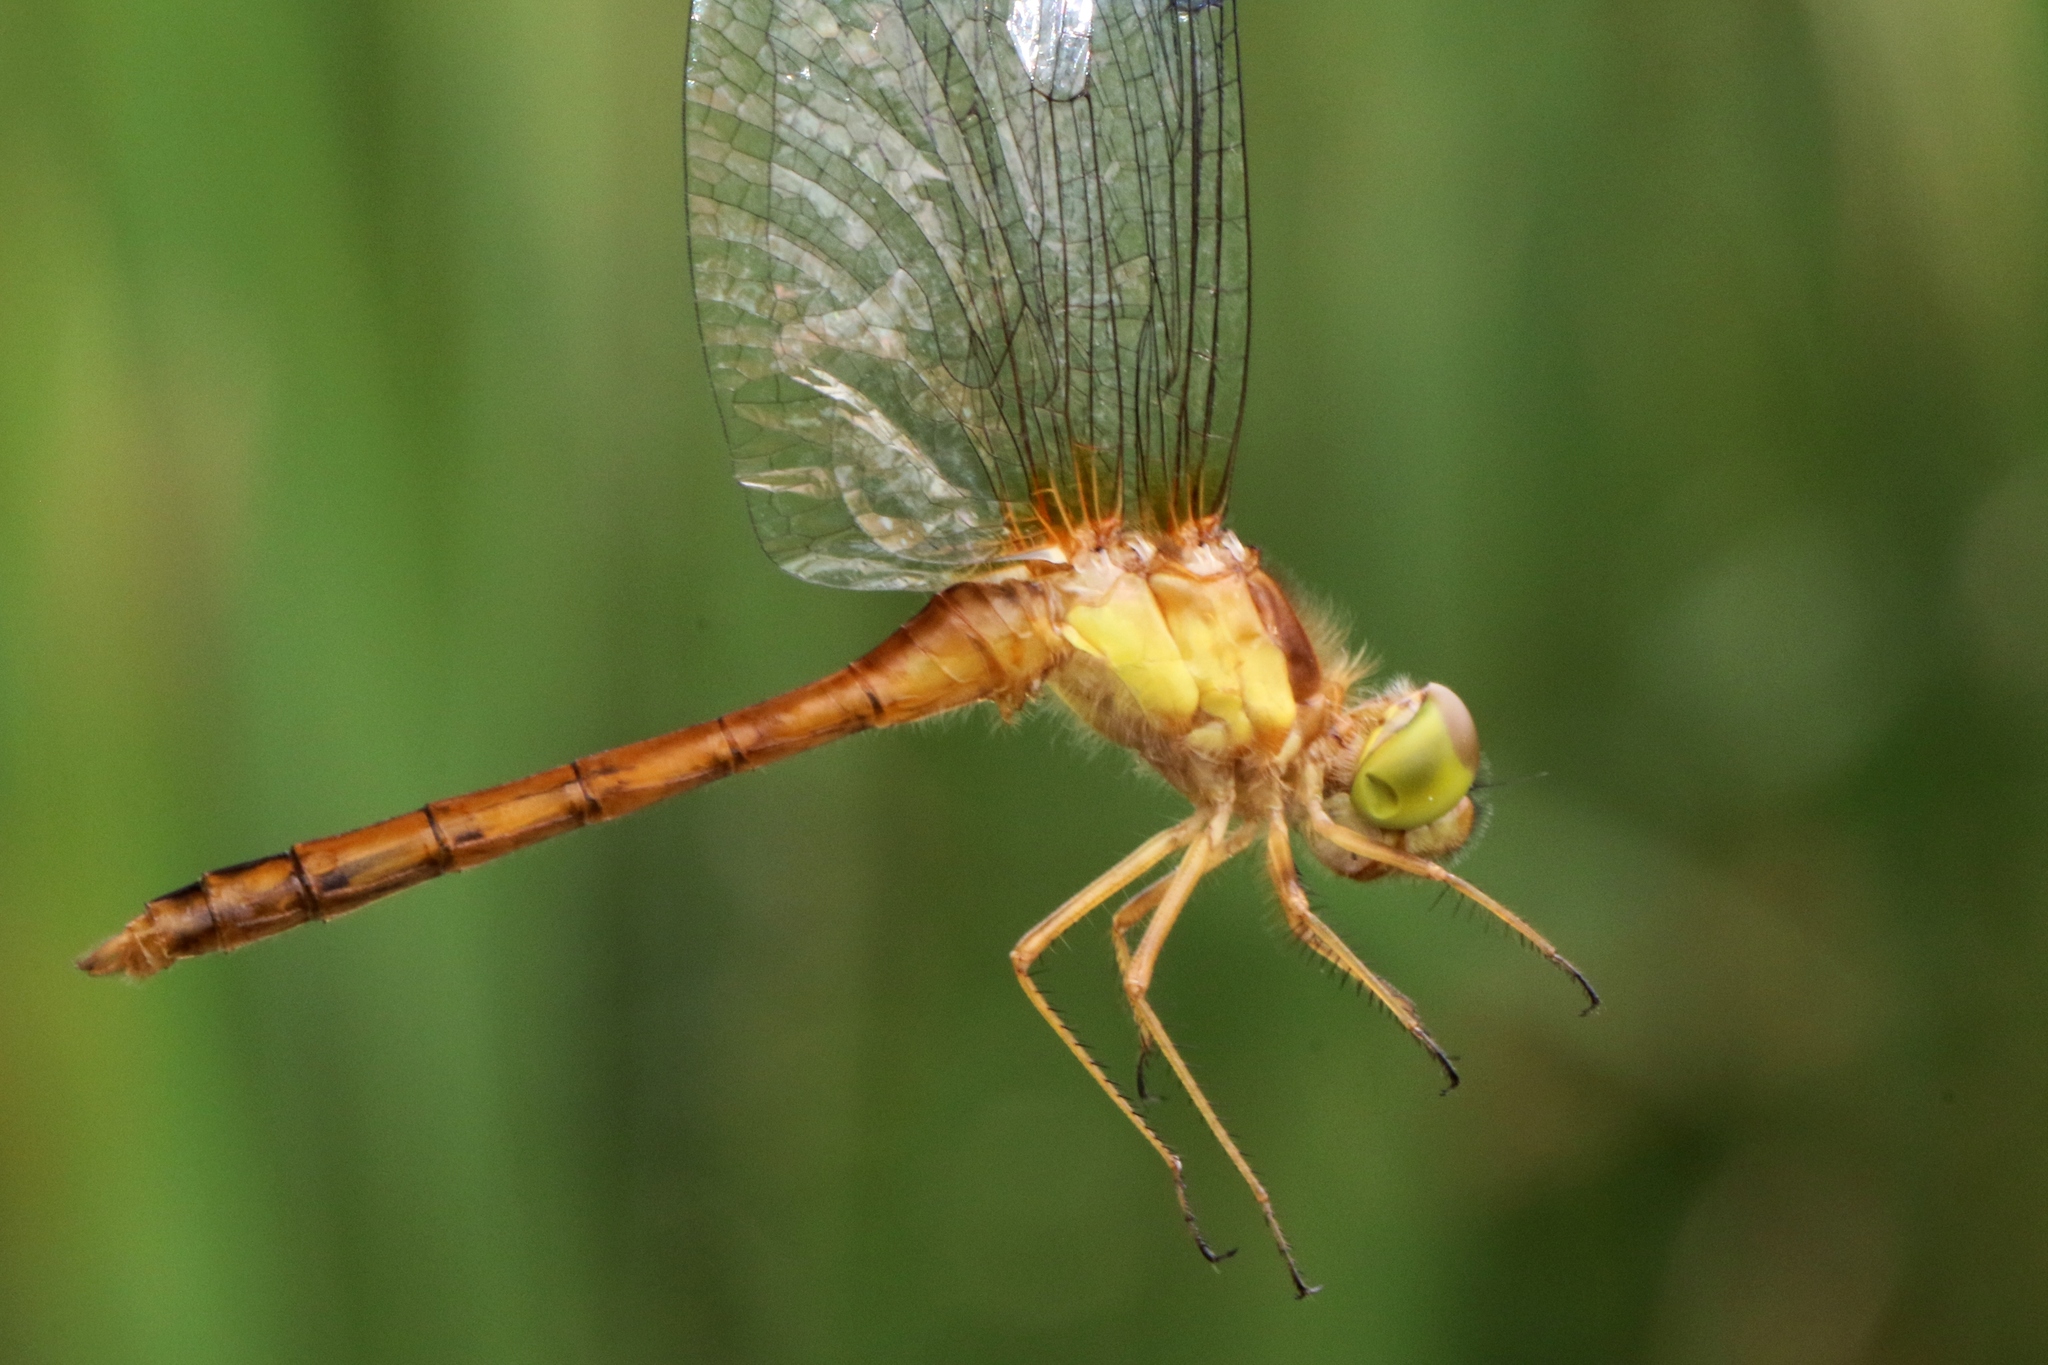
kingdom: Animalia
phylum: Arthropoda
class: Insecta
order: Odonata
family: Libellulidae
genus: Sympetrum
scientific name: Sympetrum vicinum
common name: Autumn meadowhawk
